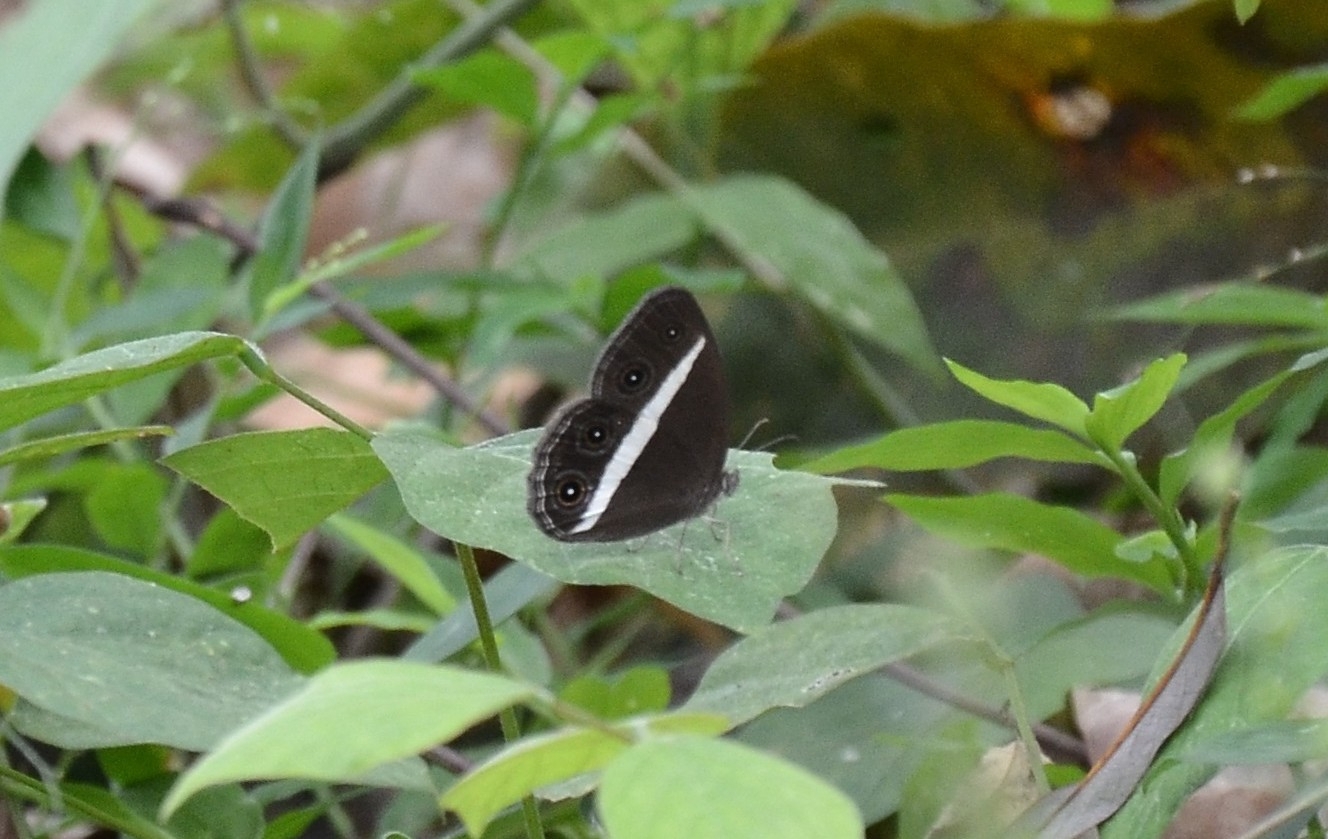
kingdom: Animalia
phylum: Arthropoda
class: Insecta
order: Lepidoptera
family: Nymphalidae
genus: Orsotriaena
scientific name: Orsotriaena medus
